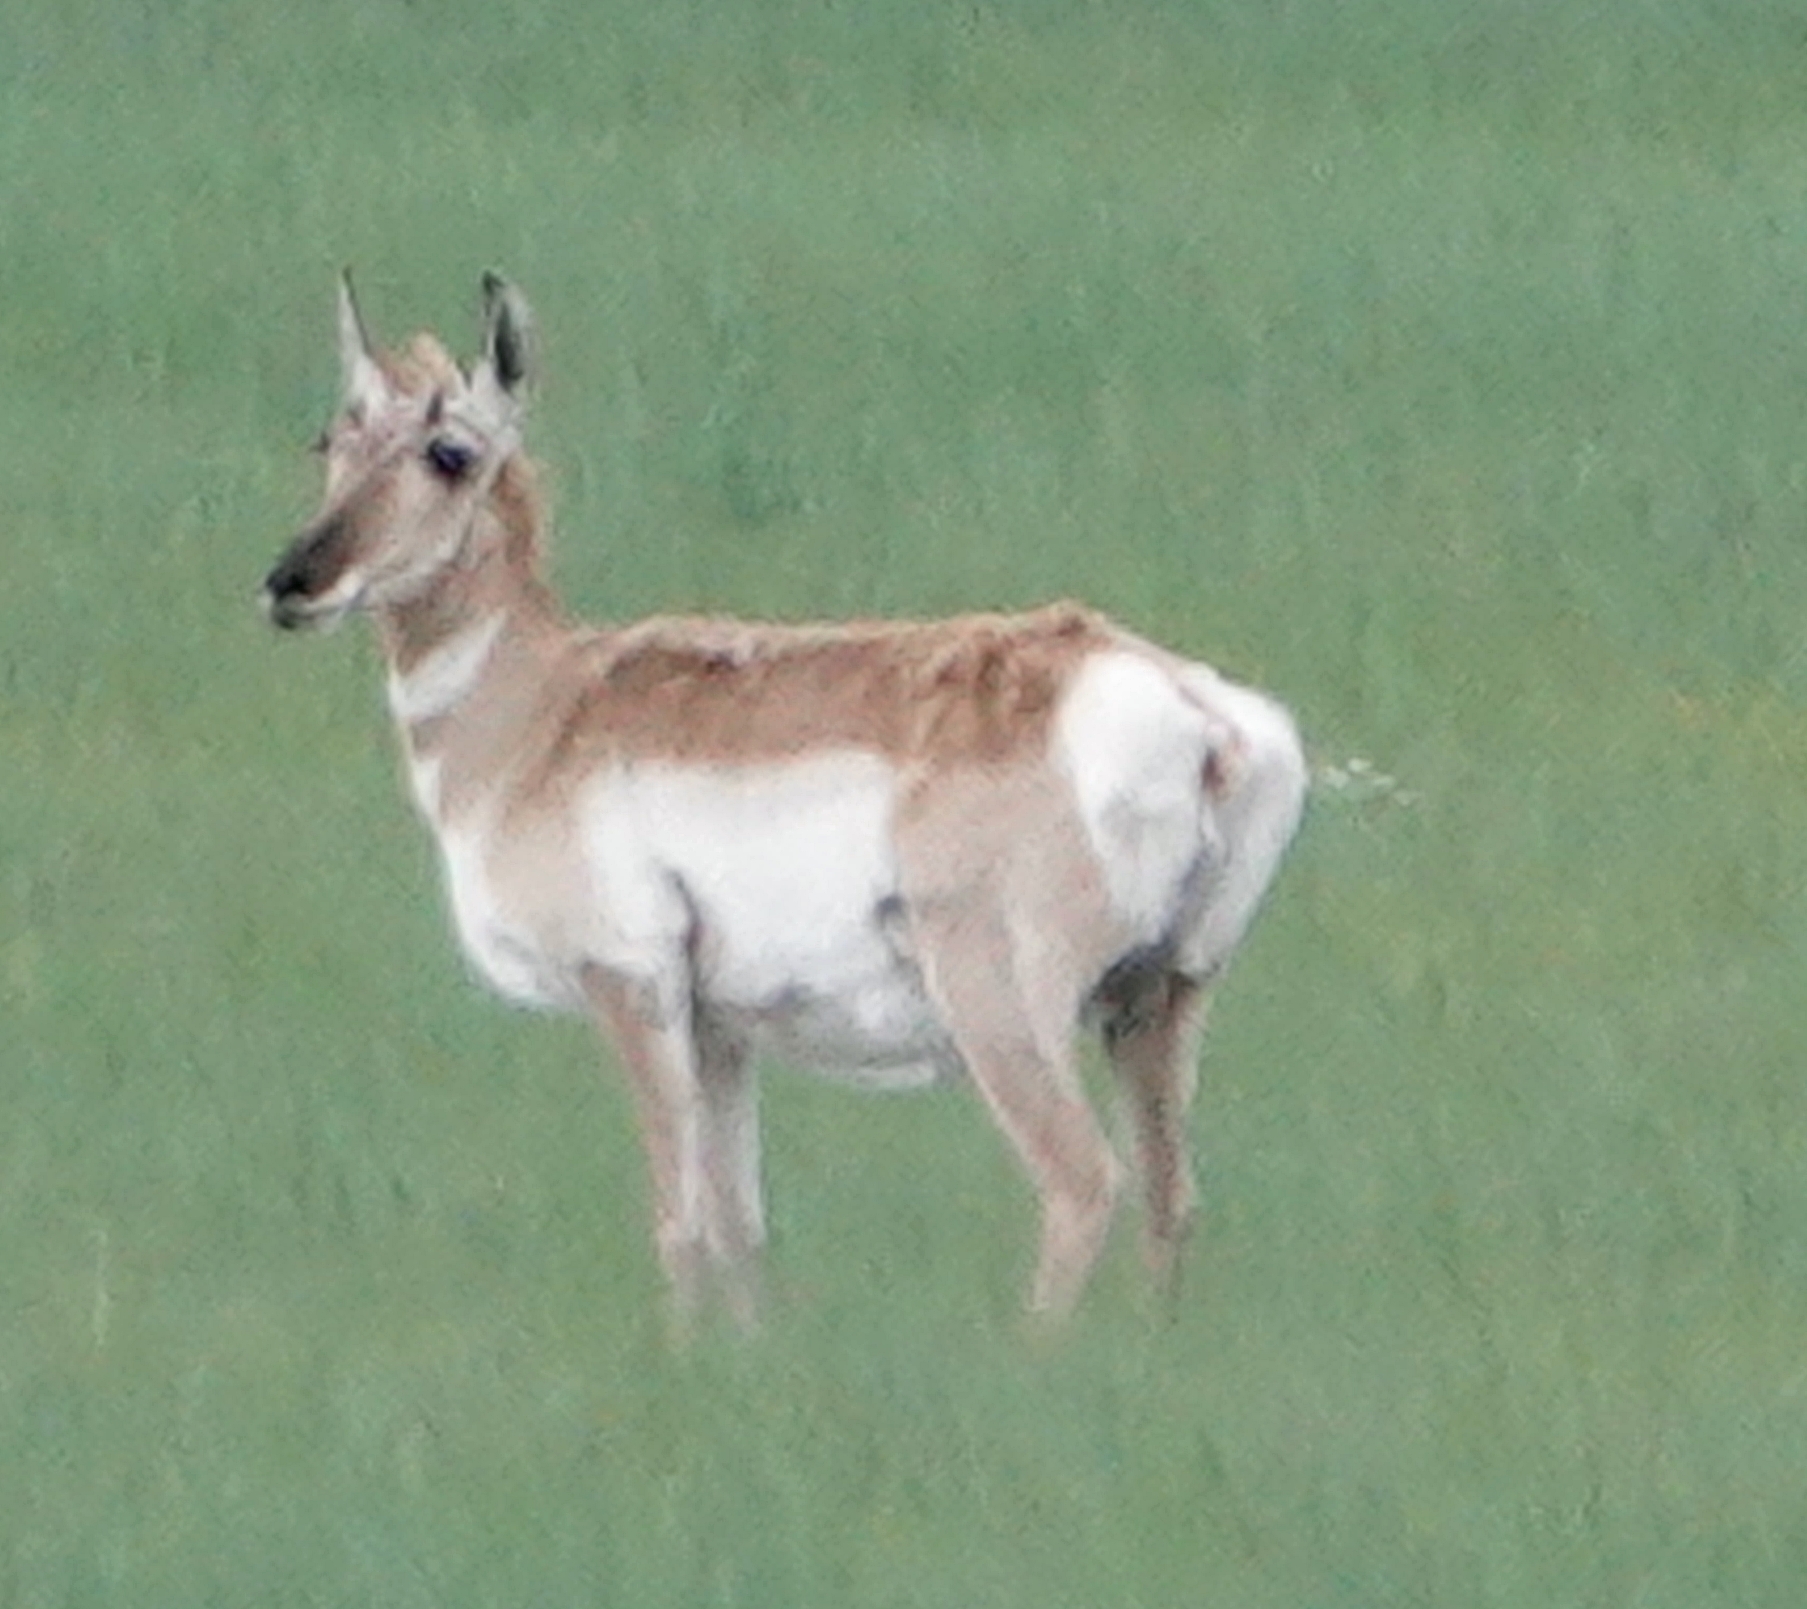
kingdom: Animalia
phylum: Chordata
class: Mammalia
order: Artiodactyla
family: Antilocapridae
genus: Antilocapra
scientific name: Antilocapra americana
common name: Pronghorn
